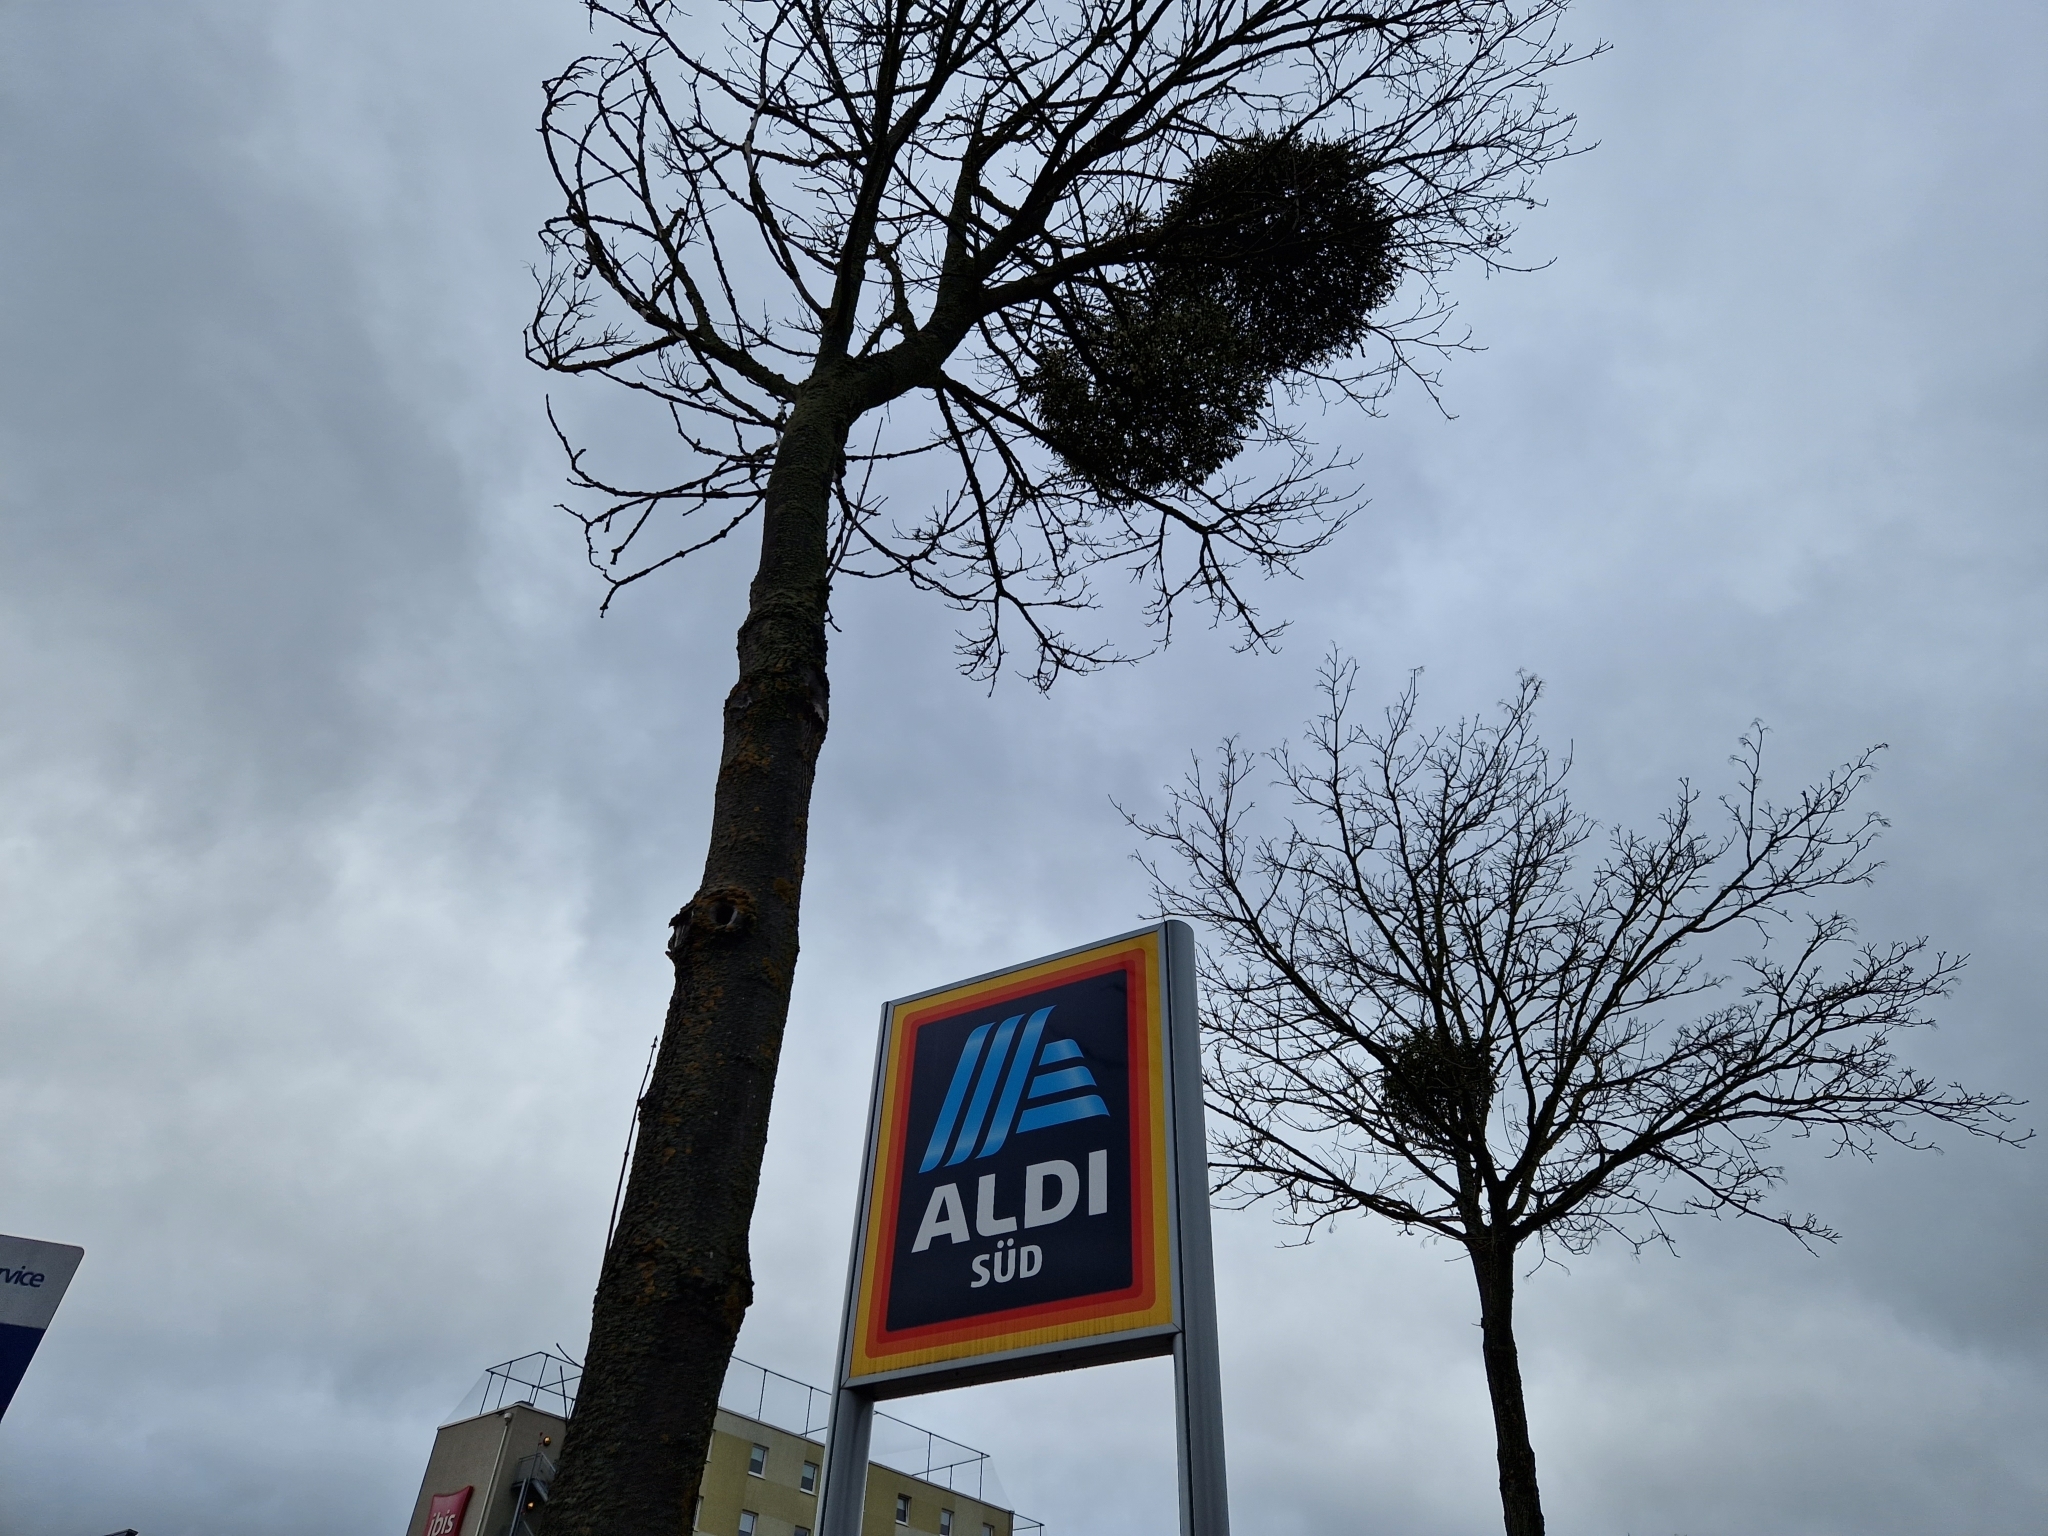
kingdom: Plantae
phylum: Tracheophyta
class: Magnoliopsida
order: Santalales
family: Viscaceae
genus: Viscum
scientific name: Viscum album
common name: Mistletoe
